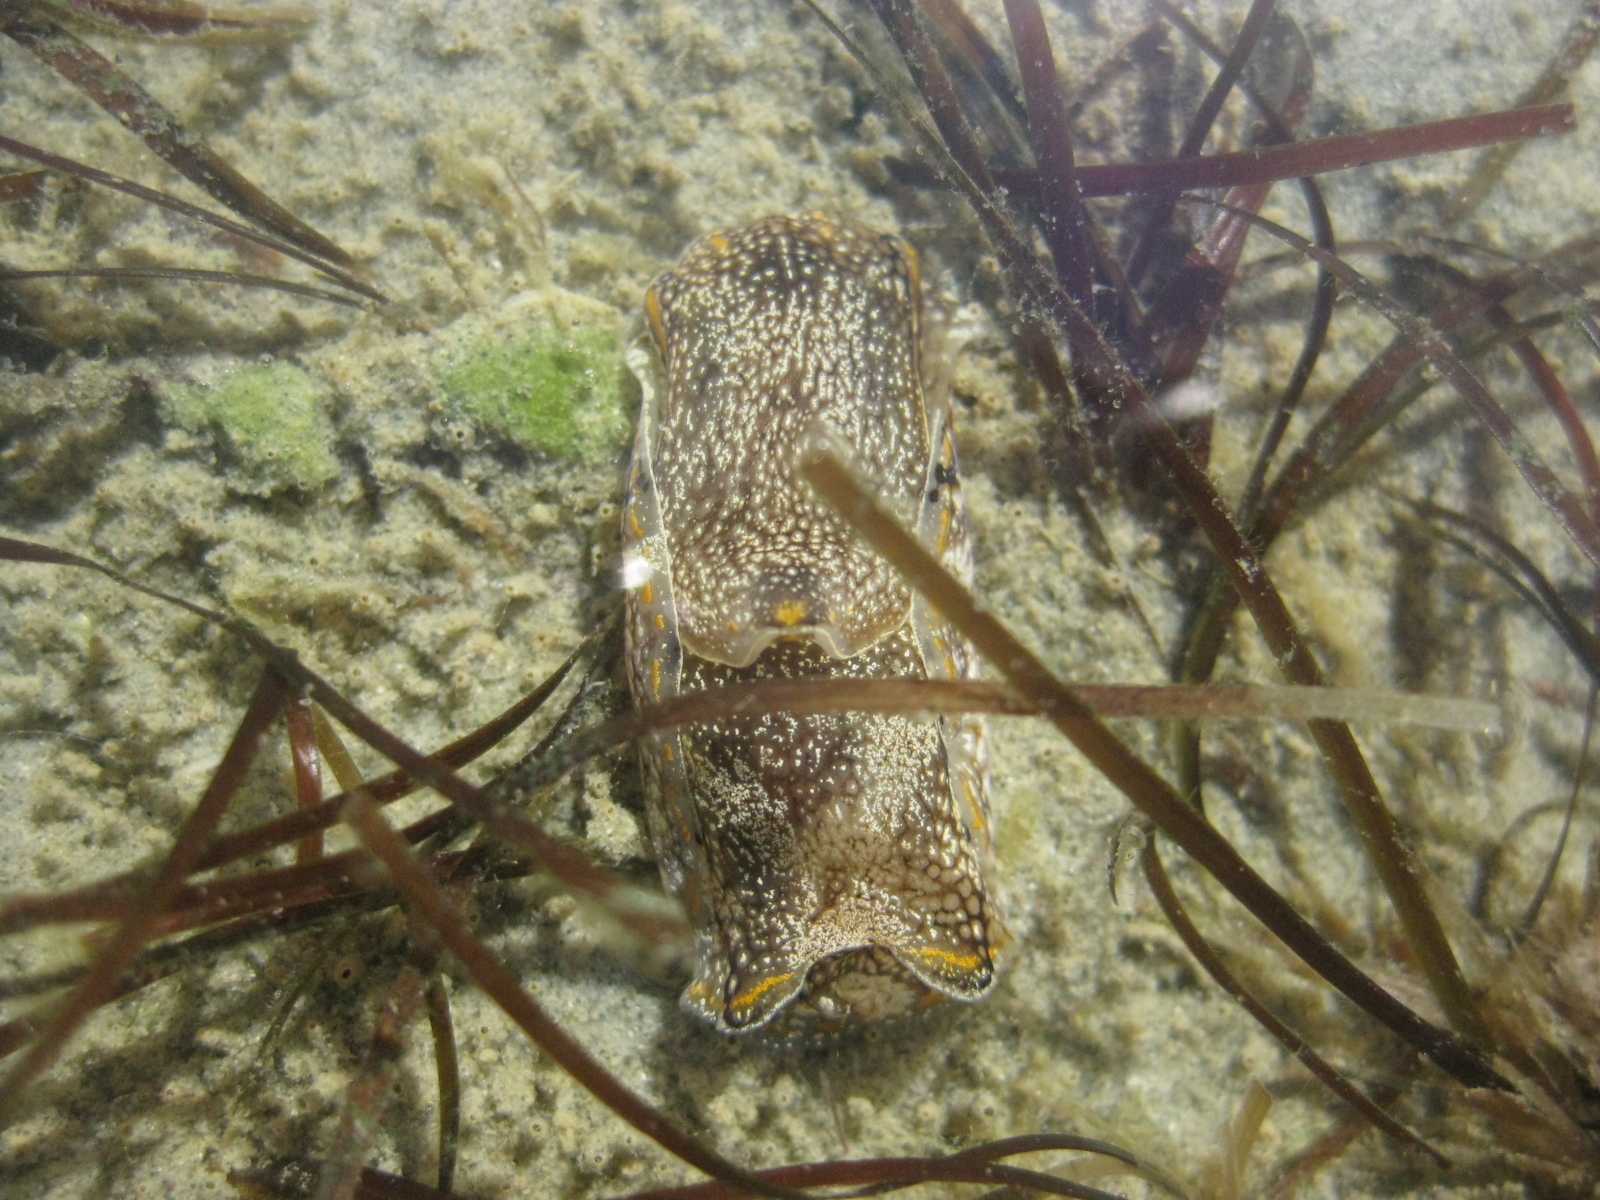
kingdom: Animalia
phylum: Mollusca
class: Gastropoda
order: Cephalaspidea
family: Aglajidae
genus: Philinopsis
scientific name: Philinopsis taronga
